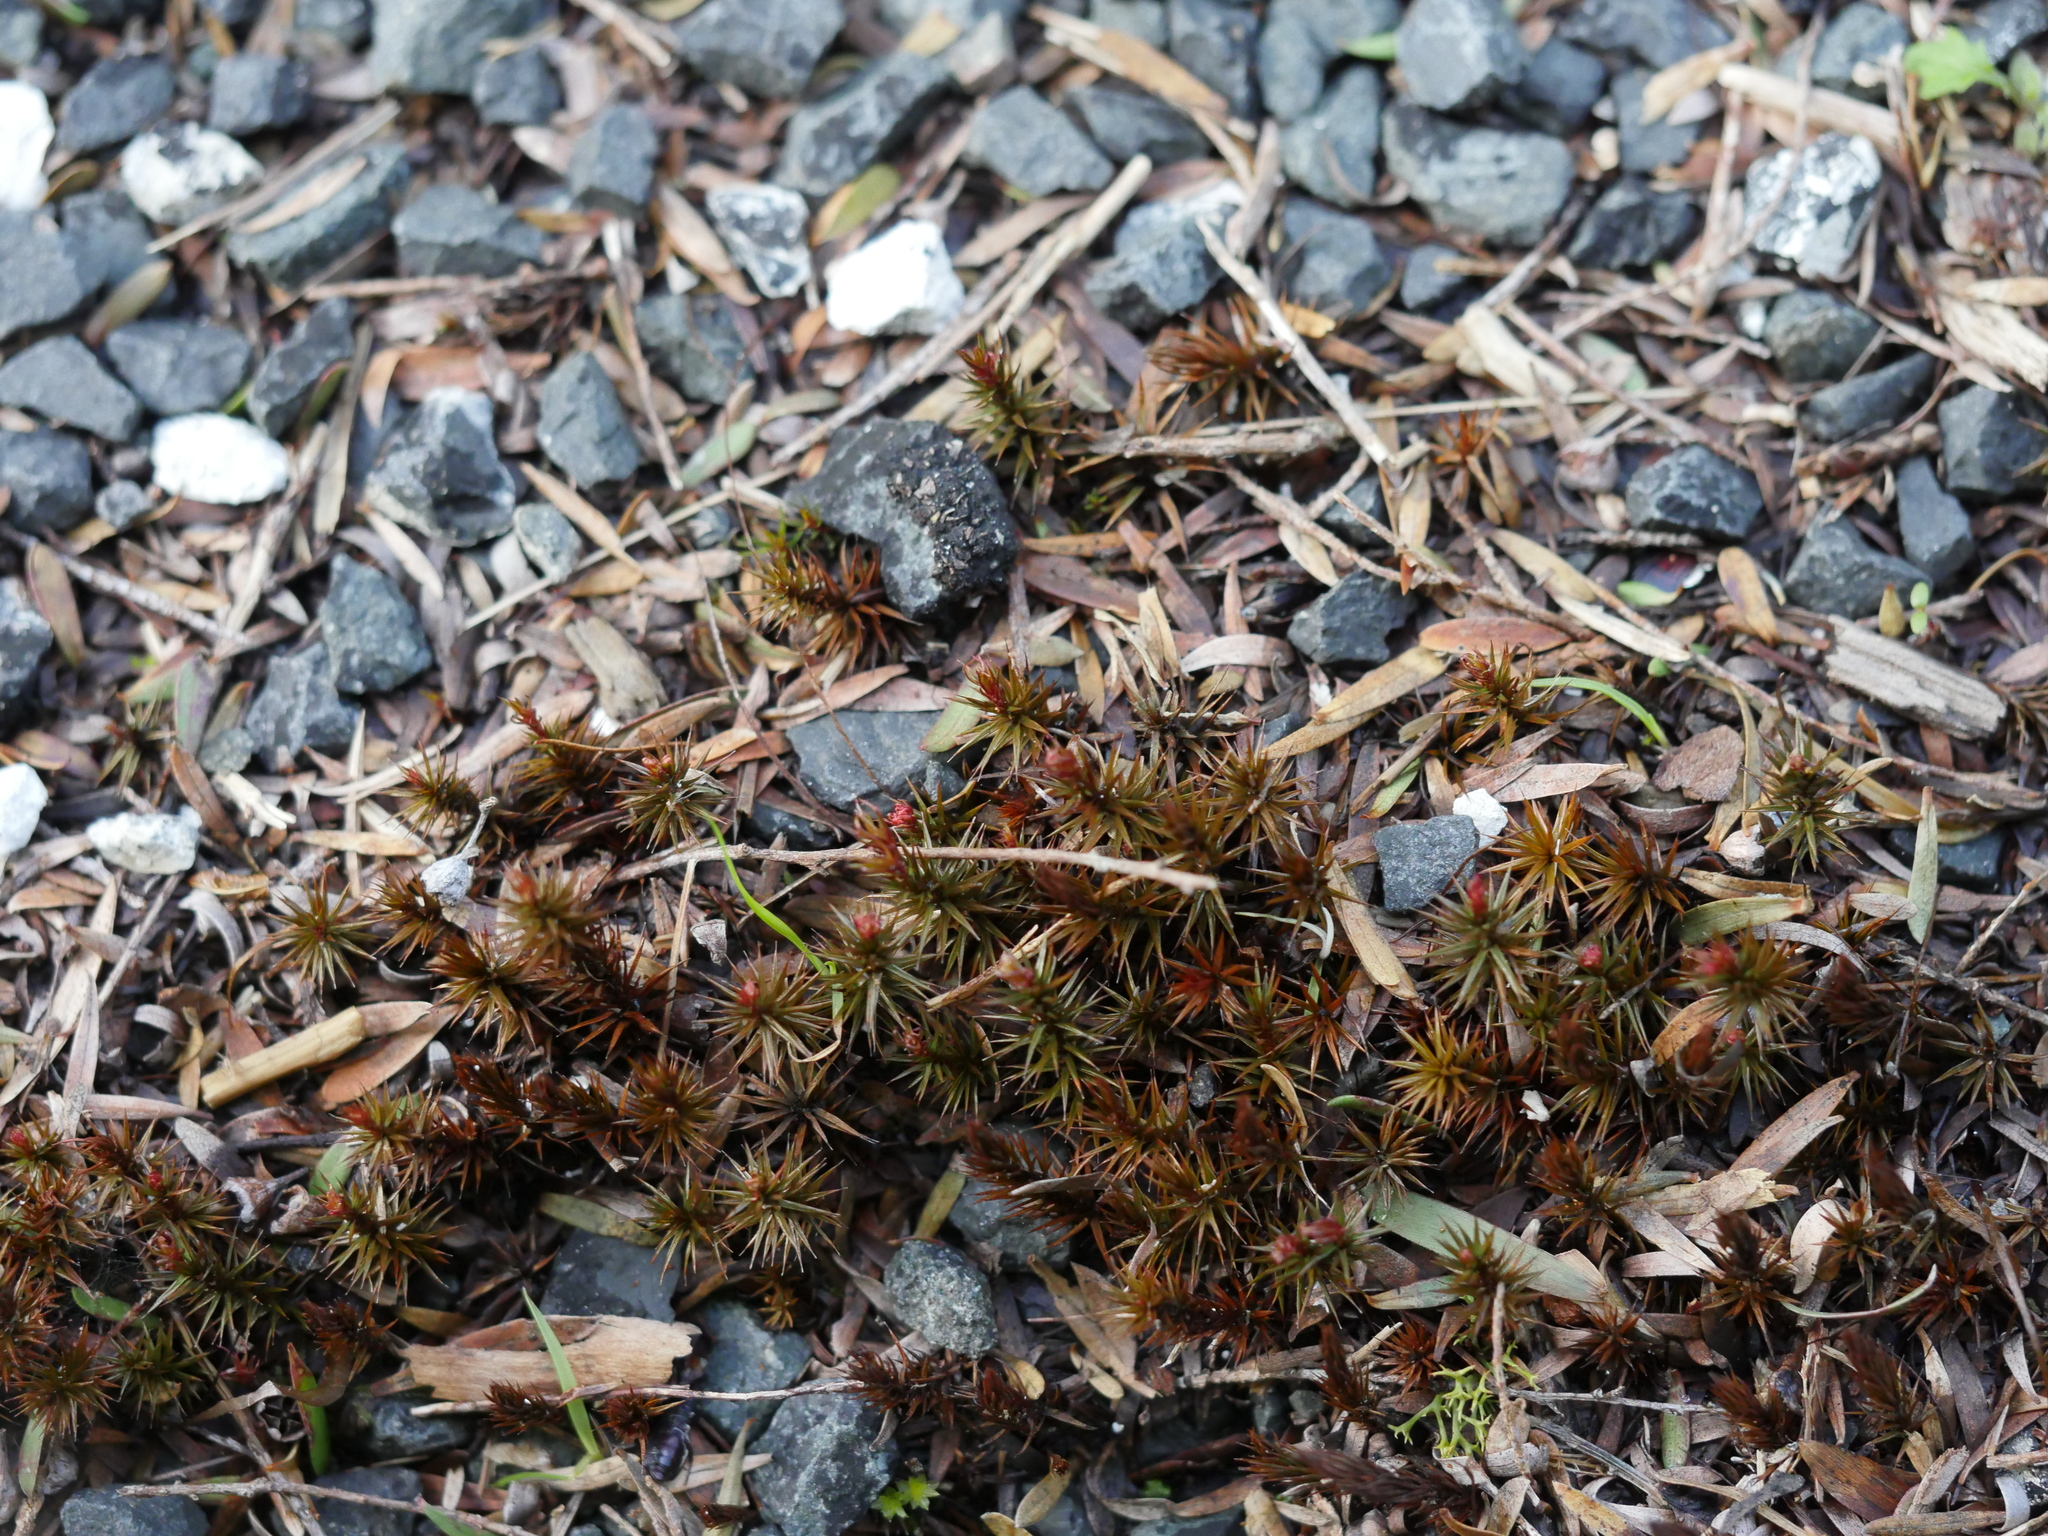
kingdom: Plantae
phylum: Bryophyta
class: Polytrichopsida
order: Polytrichales
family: Polytrichaceae
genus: Polytrichum
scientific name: Polytrichum juniperinum
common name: Juniper haircap moss
